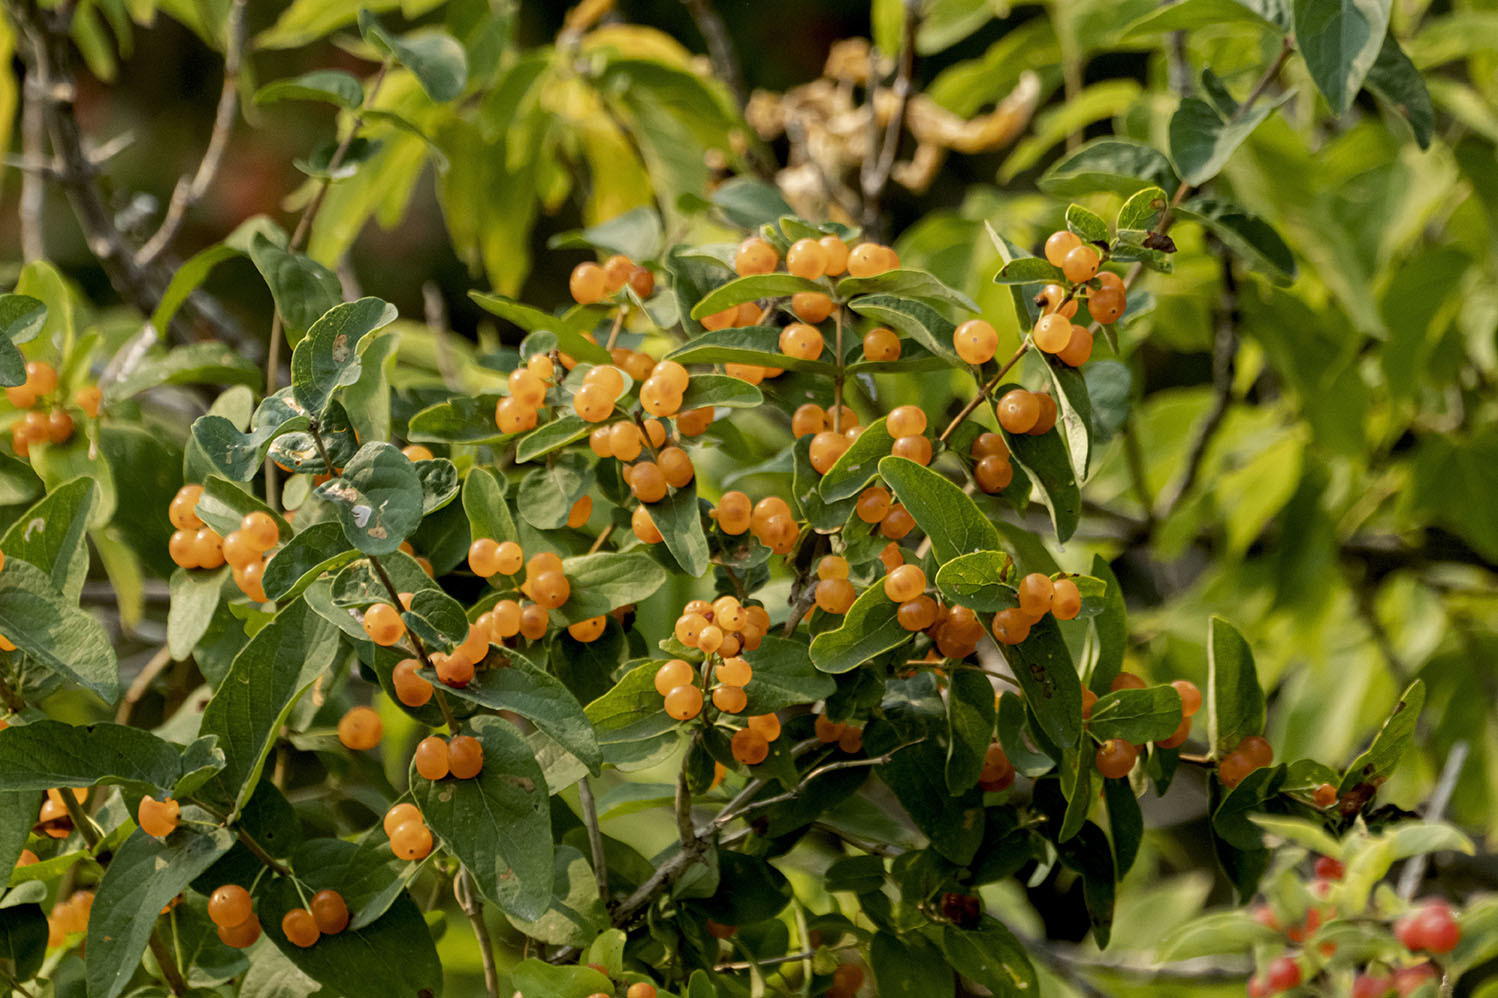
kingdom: Plantae
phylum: Tracheophyta
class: Magnoliopsida
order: Rosales
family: Elaeagnaceae
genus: Hippophae
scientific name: Hippophae rhamnoides
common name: Sea-buckthorn
